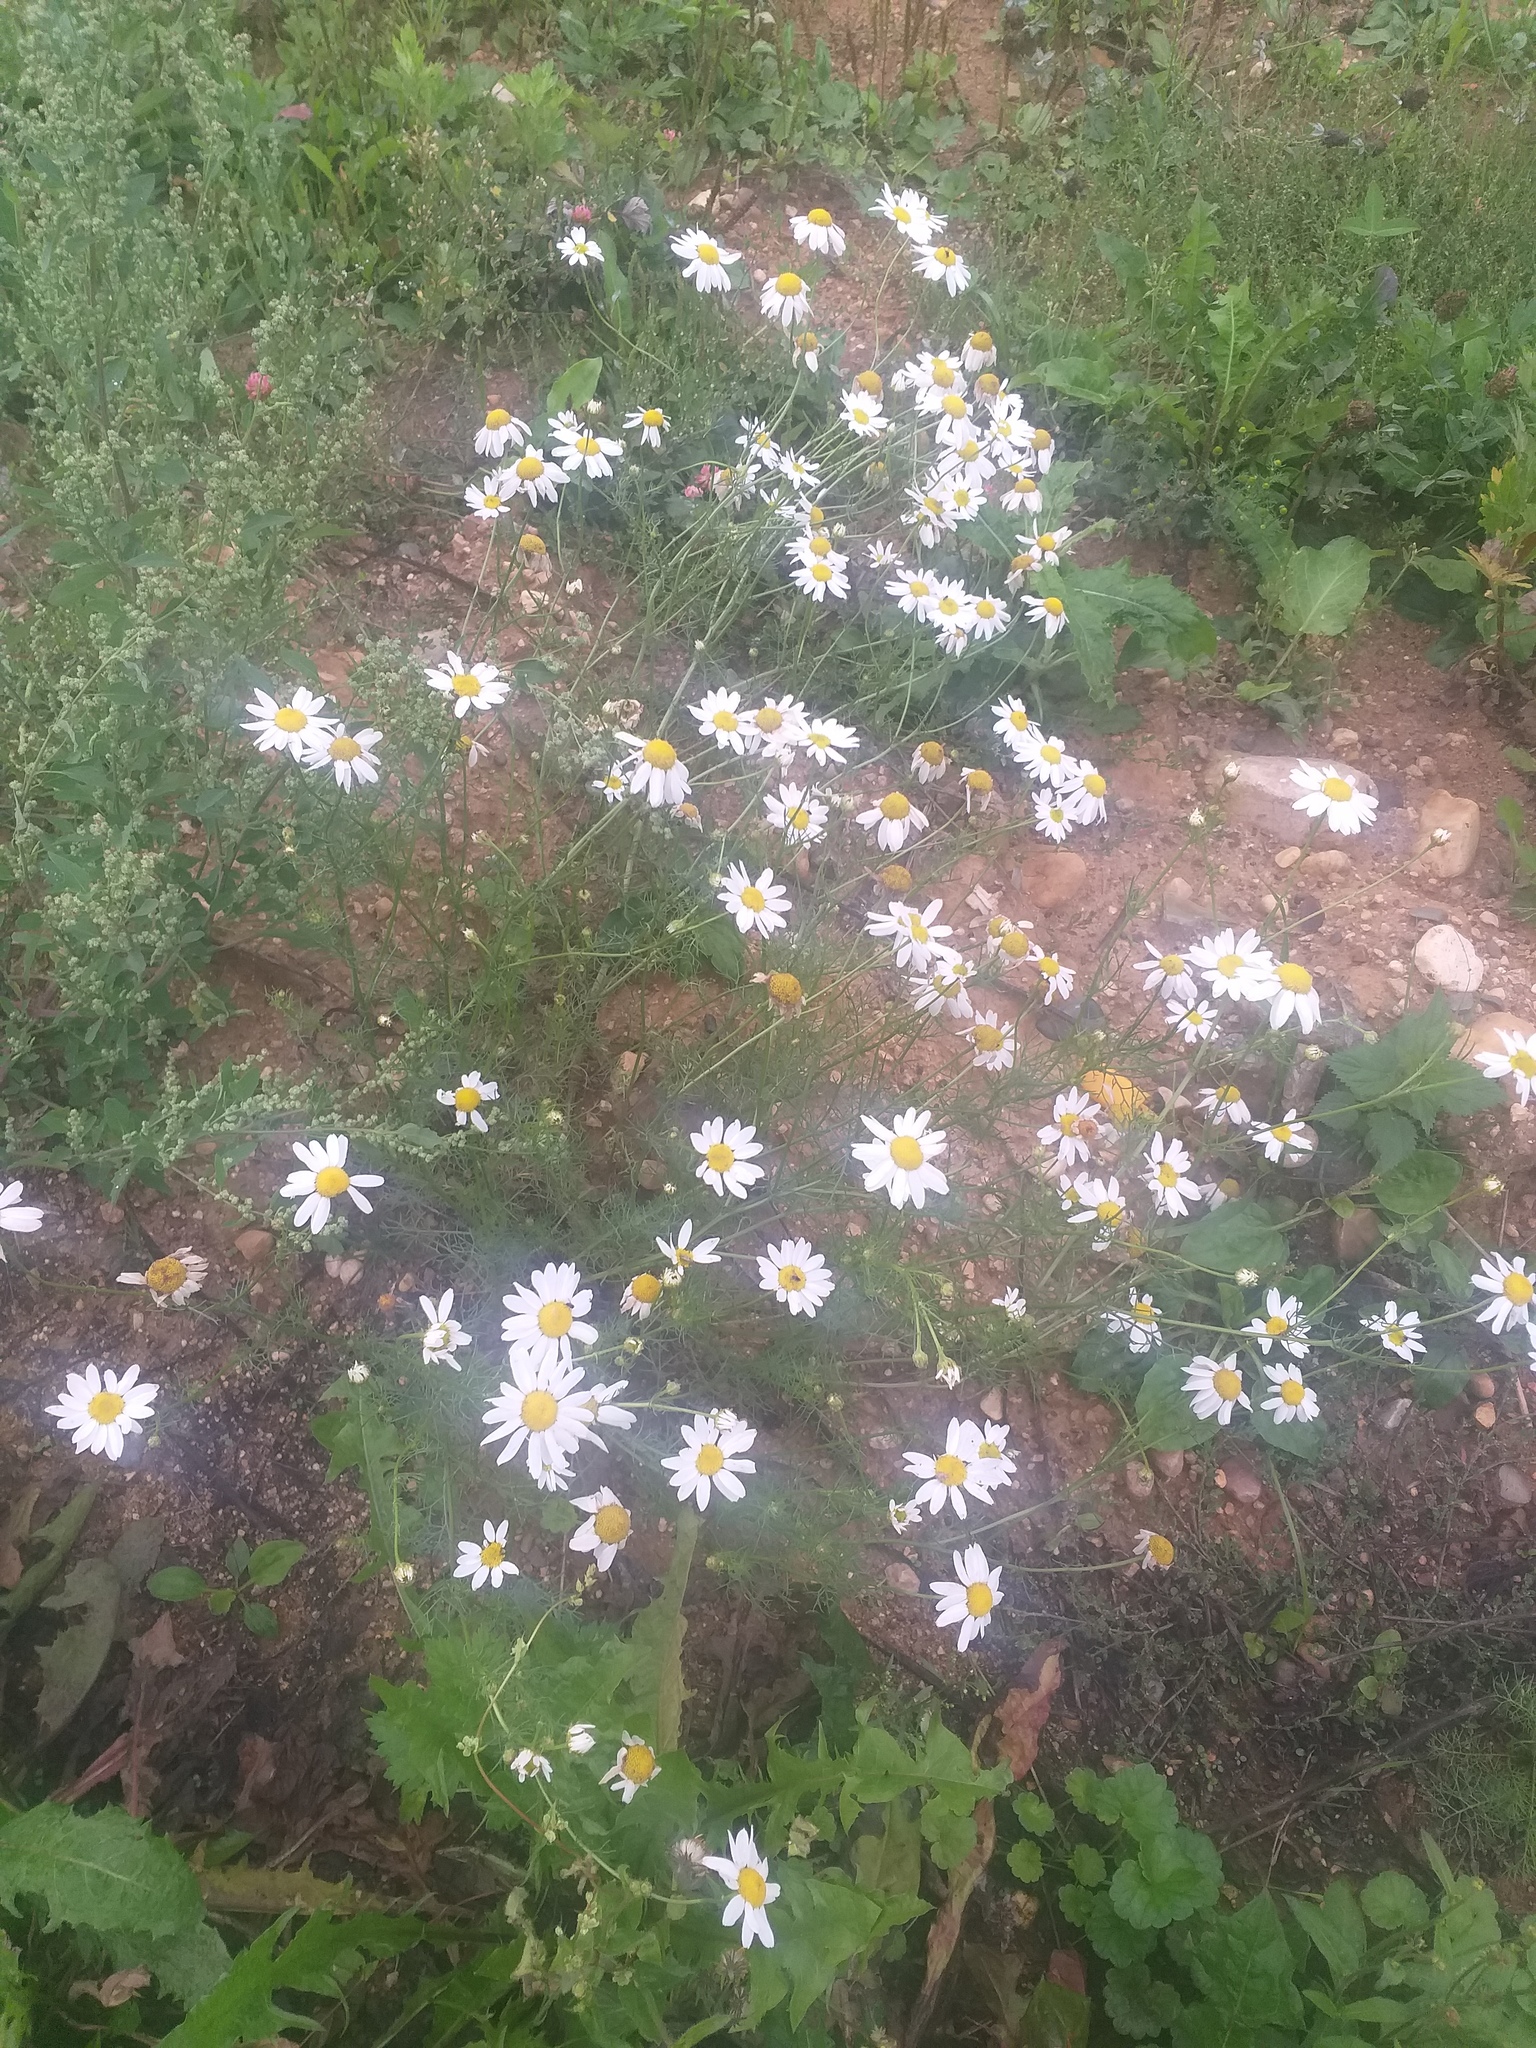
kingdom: Plantae
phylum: Tracheophyta
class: Magnoliopsida
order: Asterales
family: Asteraceae
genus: Tripleurospermum
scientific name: Tripleurospermum inodorum
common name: Scentless mayweed
